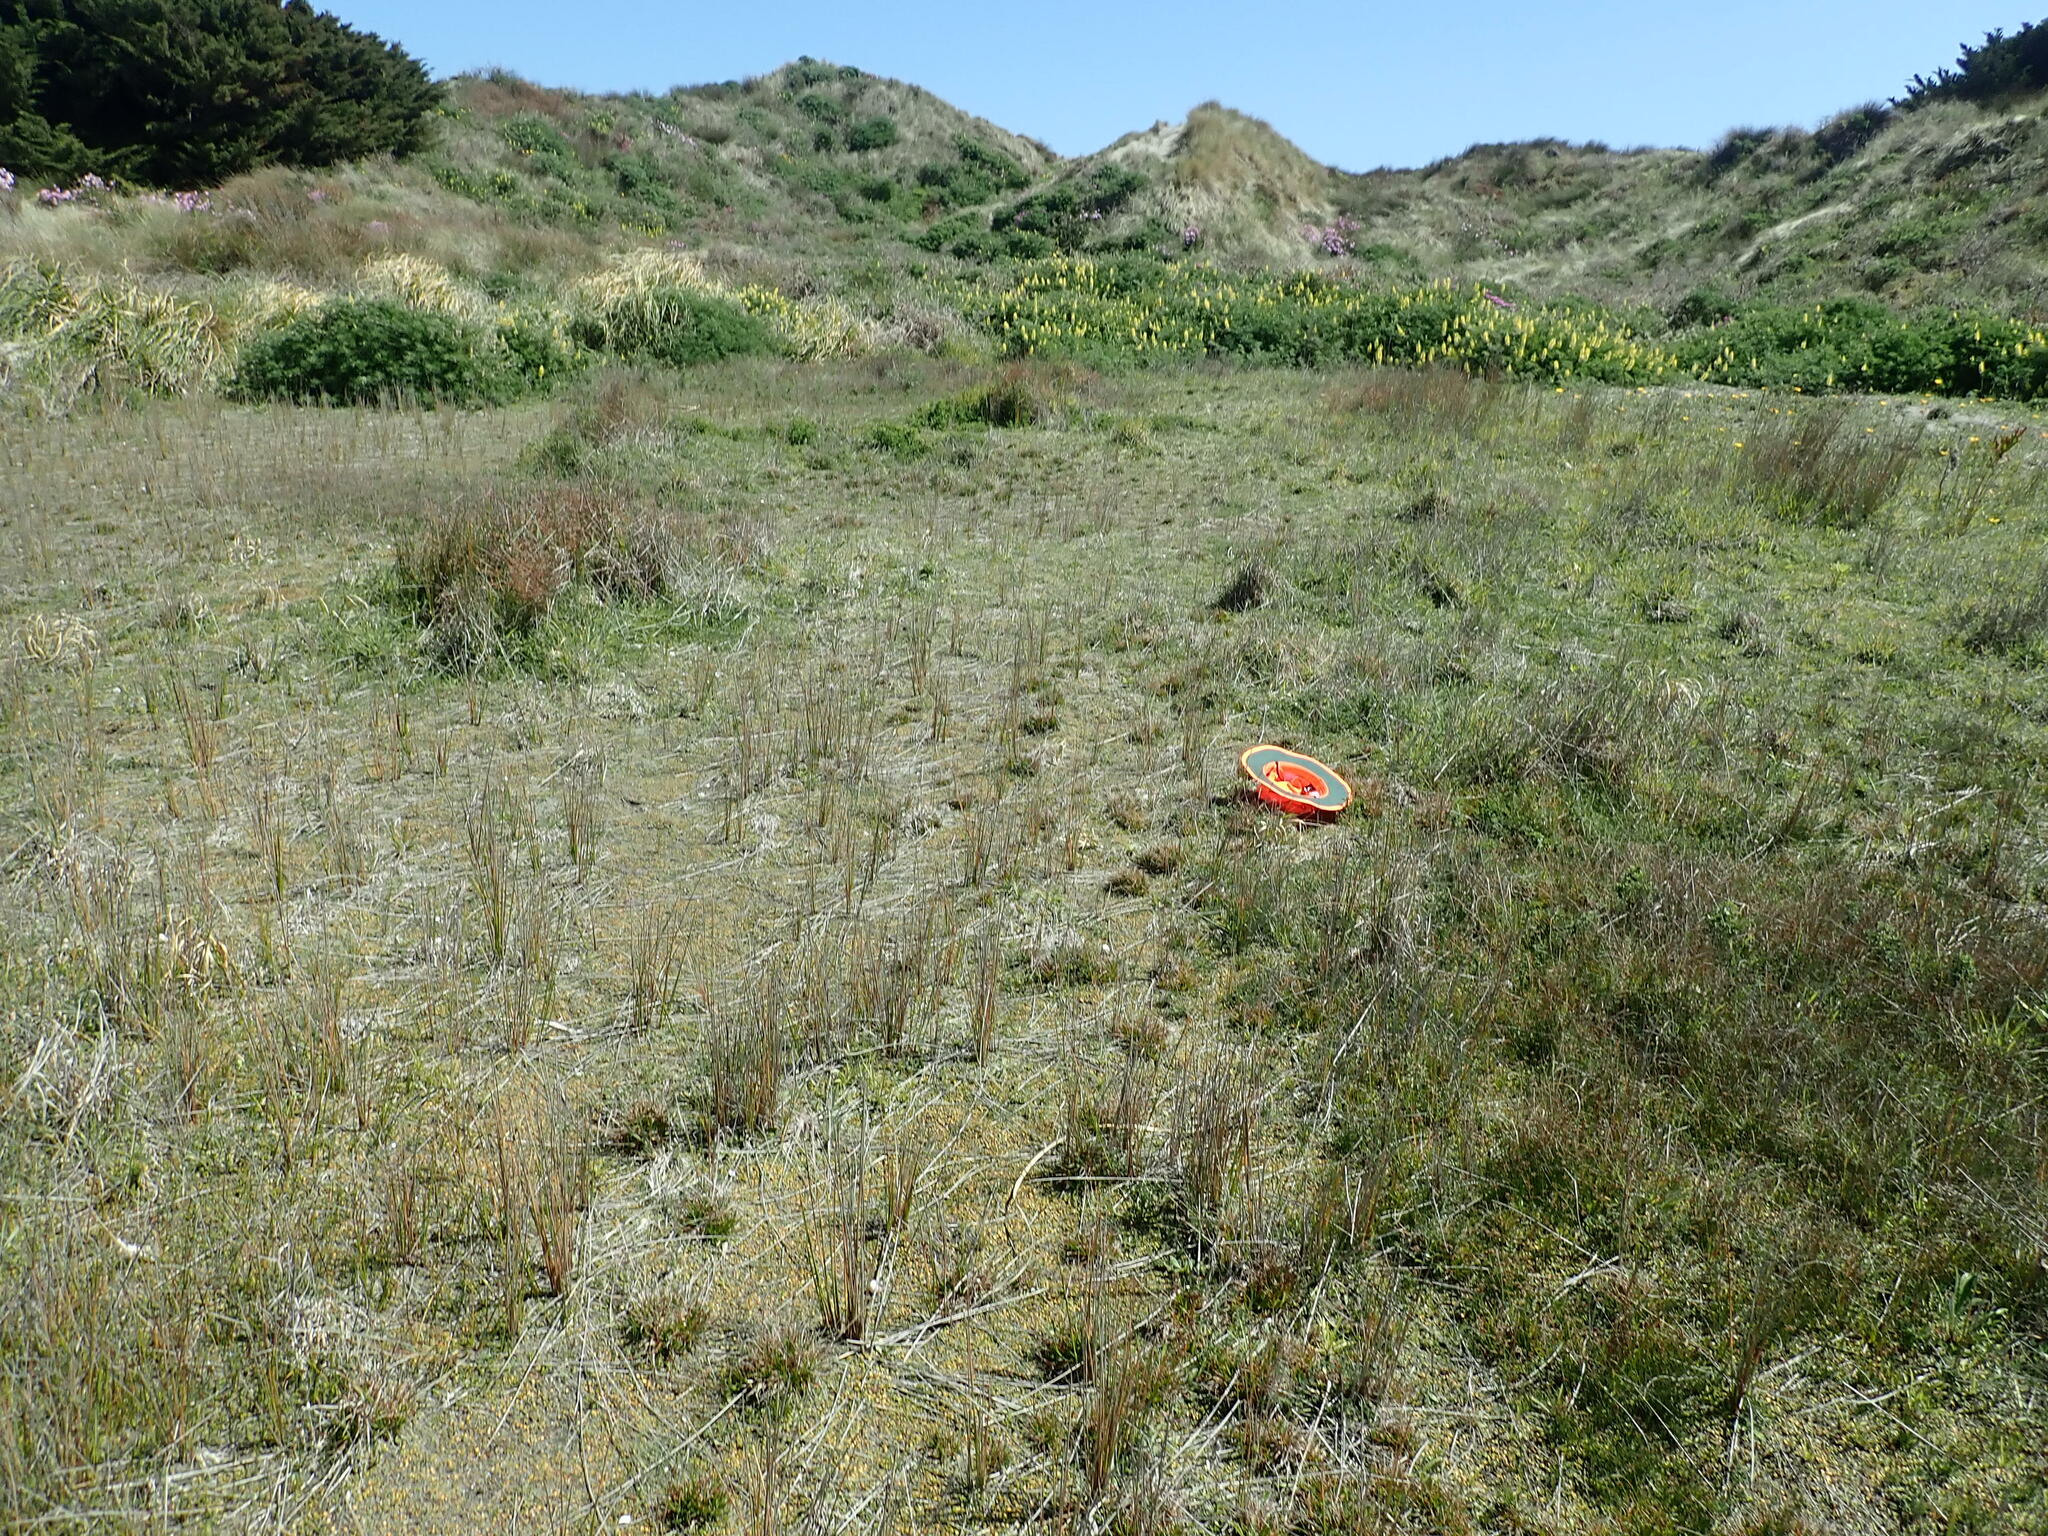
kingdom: Plantae
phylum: Tracheophyta
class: Liliopsida
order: Poales
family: Juncaceae
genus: Juncus
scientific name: Juncus caespiticius
